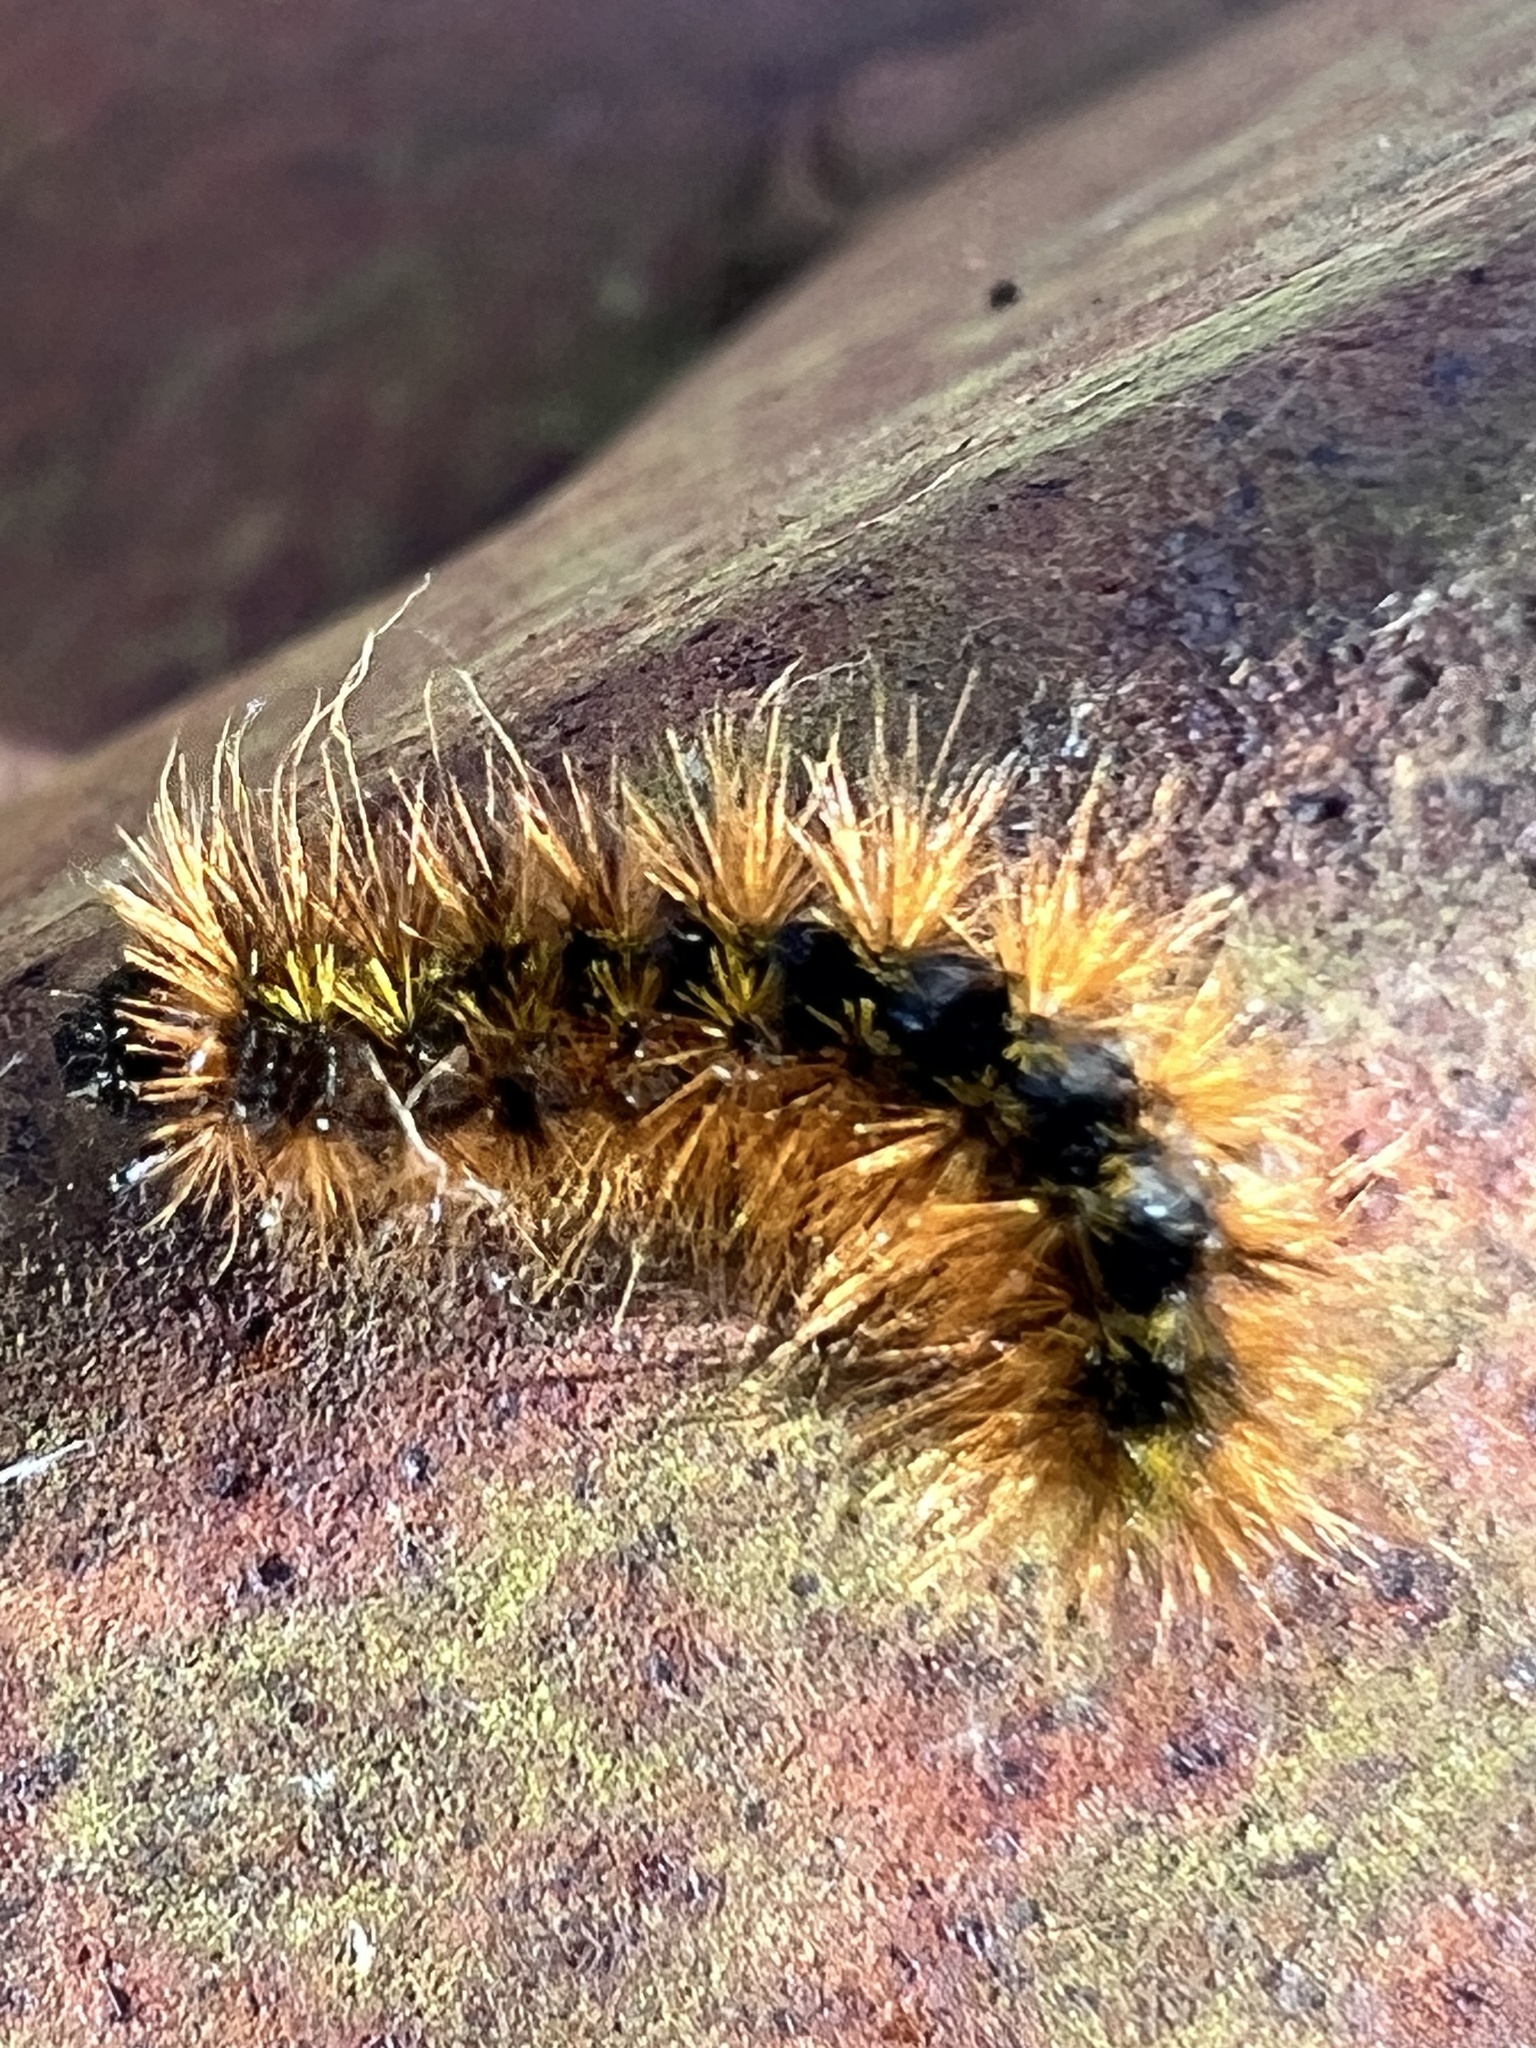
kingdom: Animalia
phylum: Arthropoda
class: Insecta
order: Lepidoptera
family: Erebidae
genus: Lophocampa
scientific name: Lophocampa argentata
